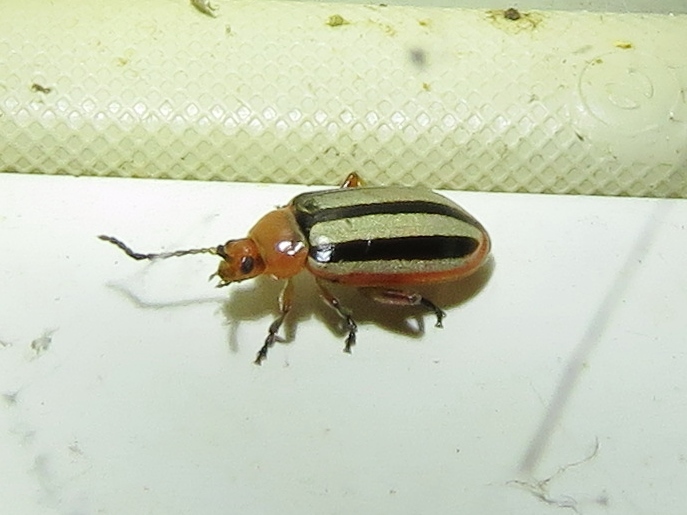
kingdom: Animalia
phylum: Arthropoda
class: Insecta
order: Coleoptera
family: Chrysomelidae
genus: Disonycha
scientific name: Disonycha leptolineata
